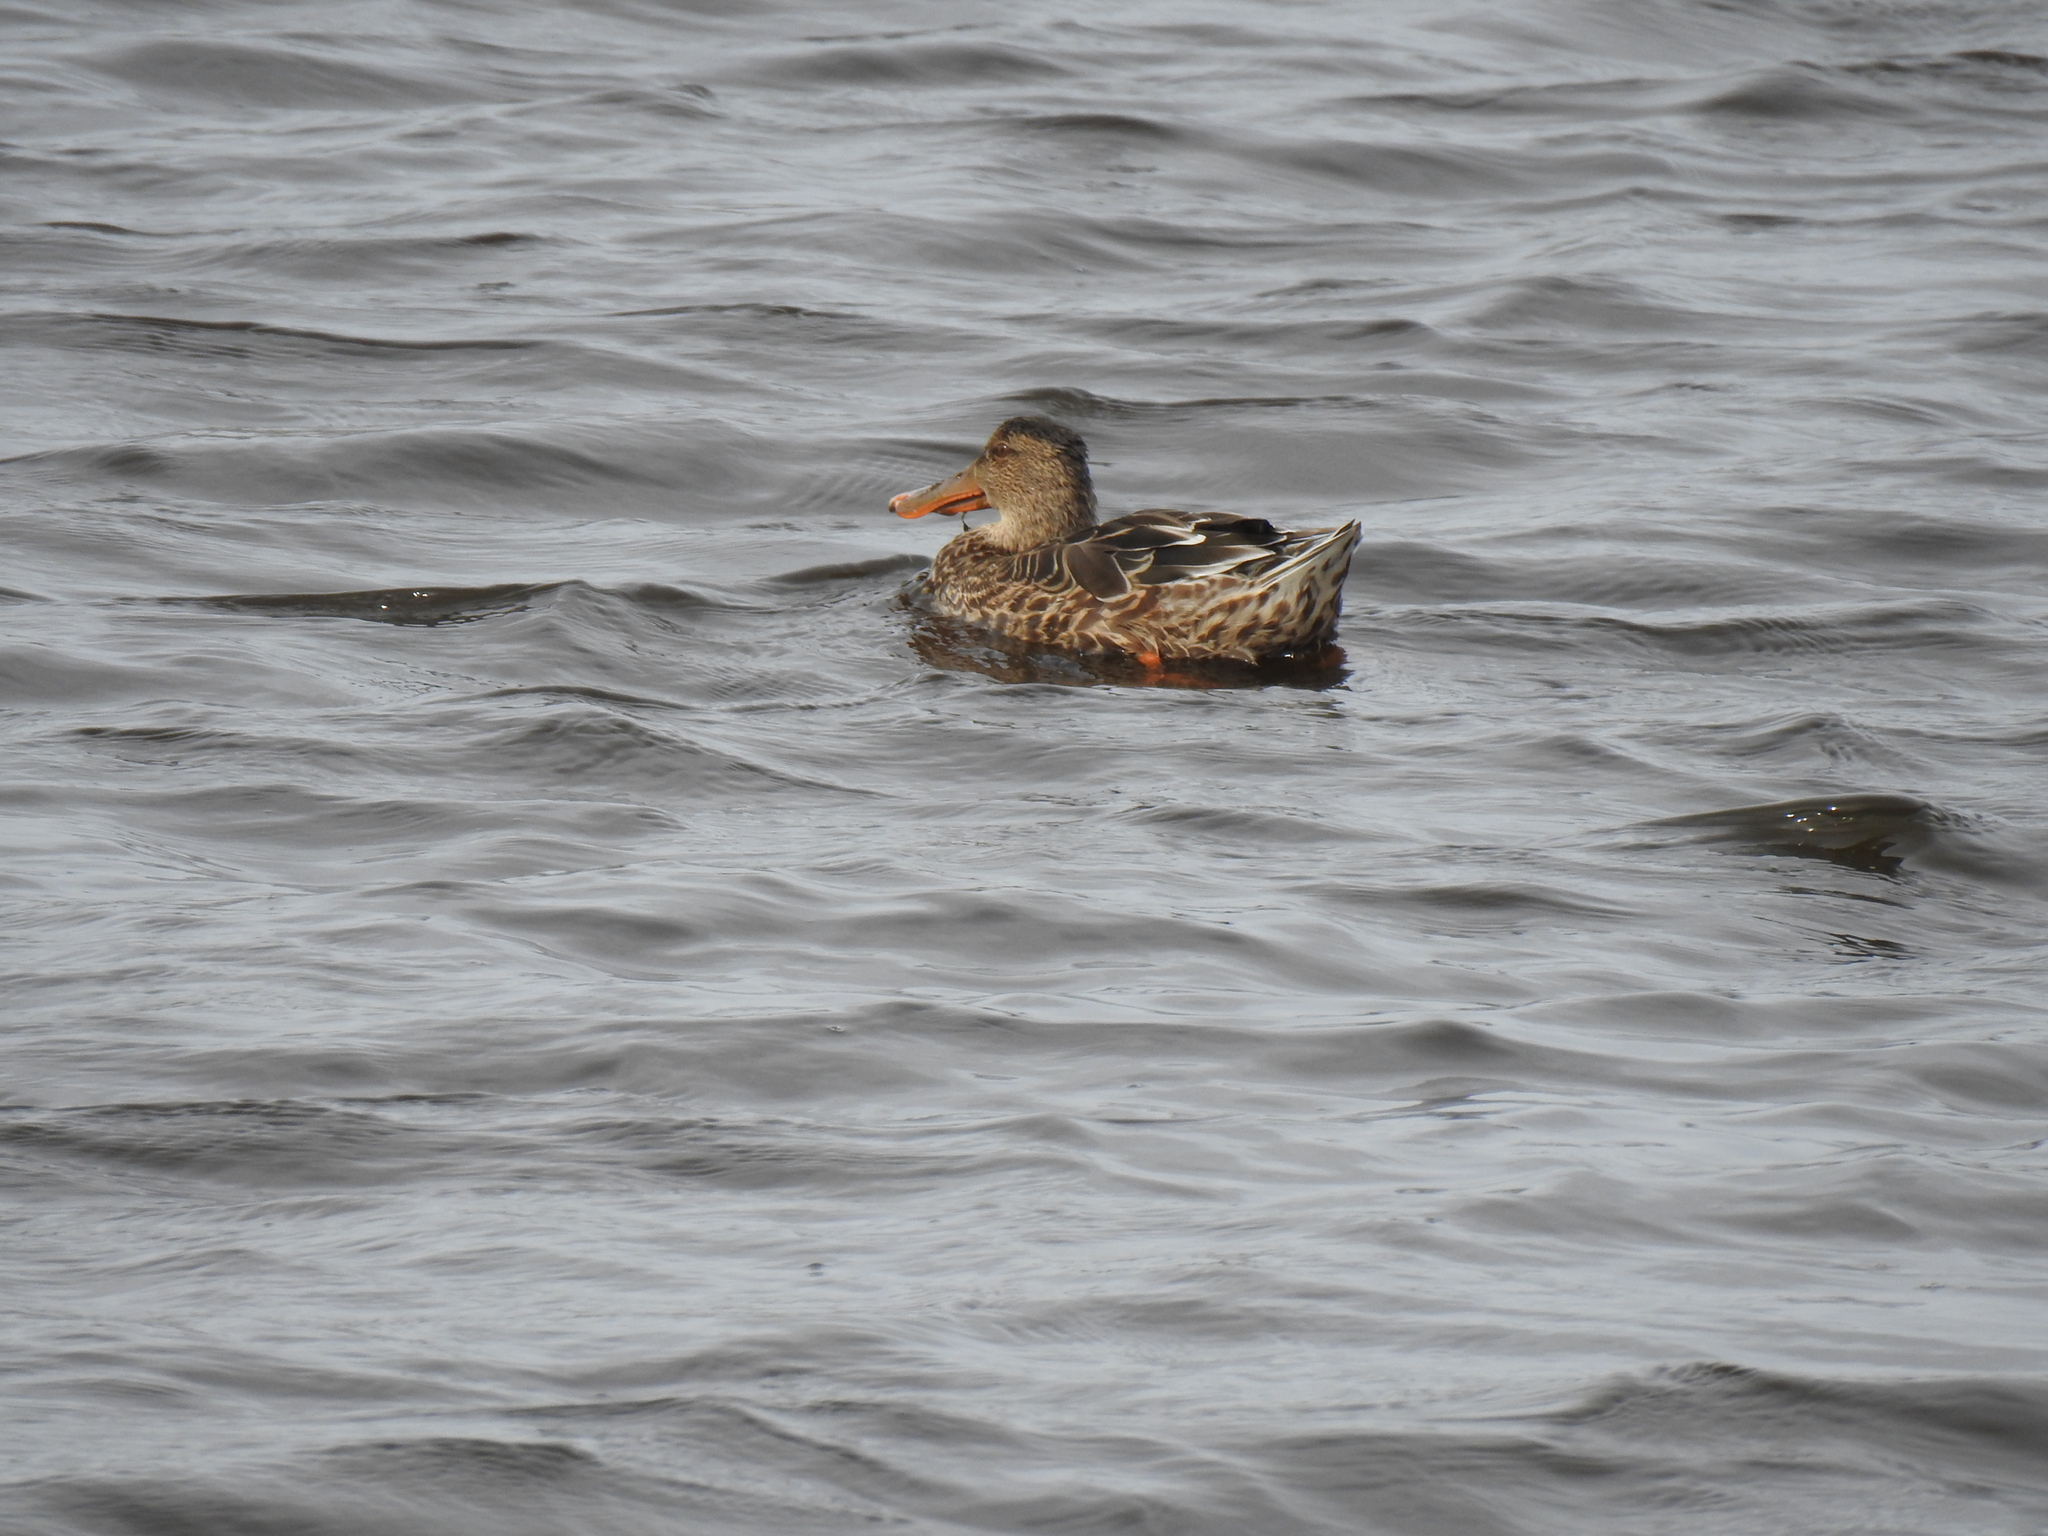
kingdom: Animalia
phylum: Chordata
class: Aves
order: Anseriformes
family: Anatidae
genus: Spatula
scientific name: Spatula clypeata
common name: Northern shoveler
